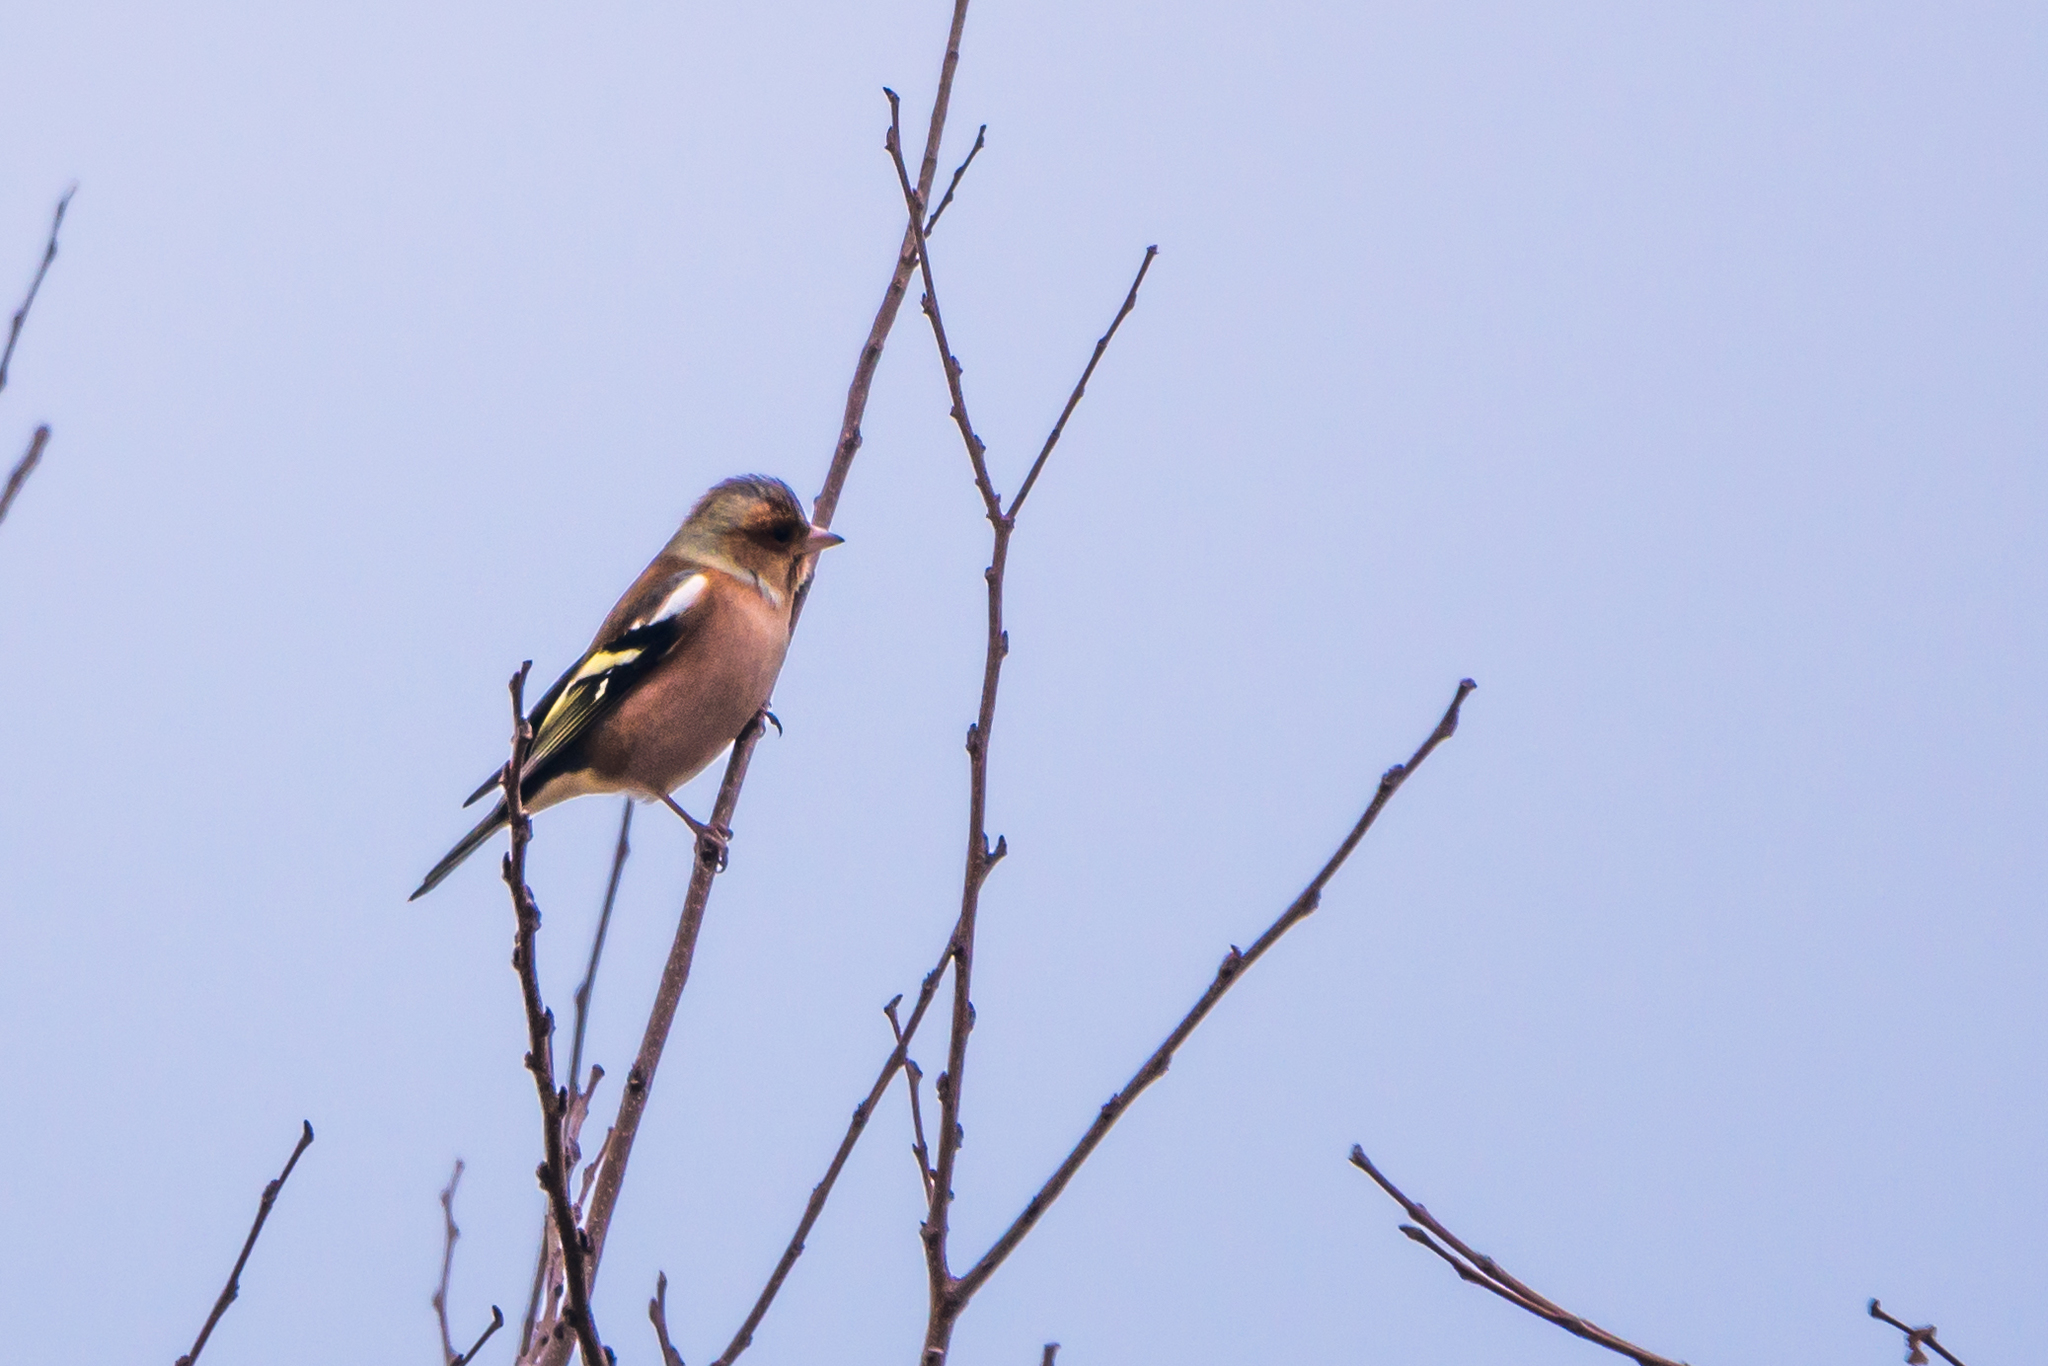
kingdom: Animalia
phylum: Chordata
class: Aves
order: Passeriformes
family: Fringillidae
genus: Fringilla
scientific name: Fringilla coelebs
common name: Common chaffinch
